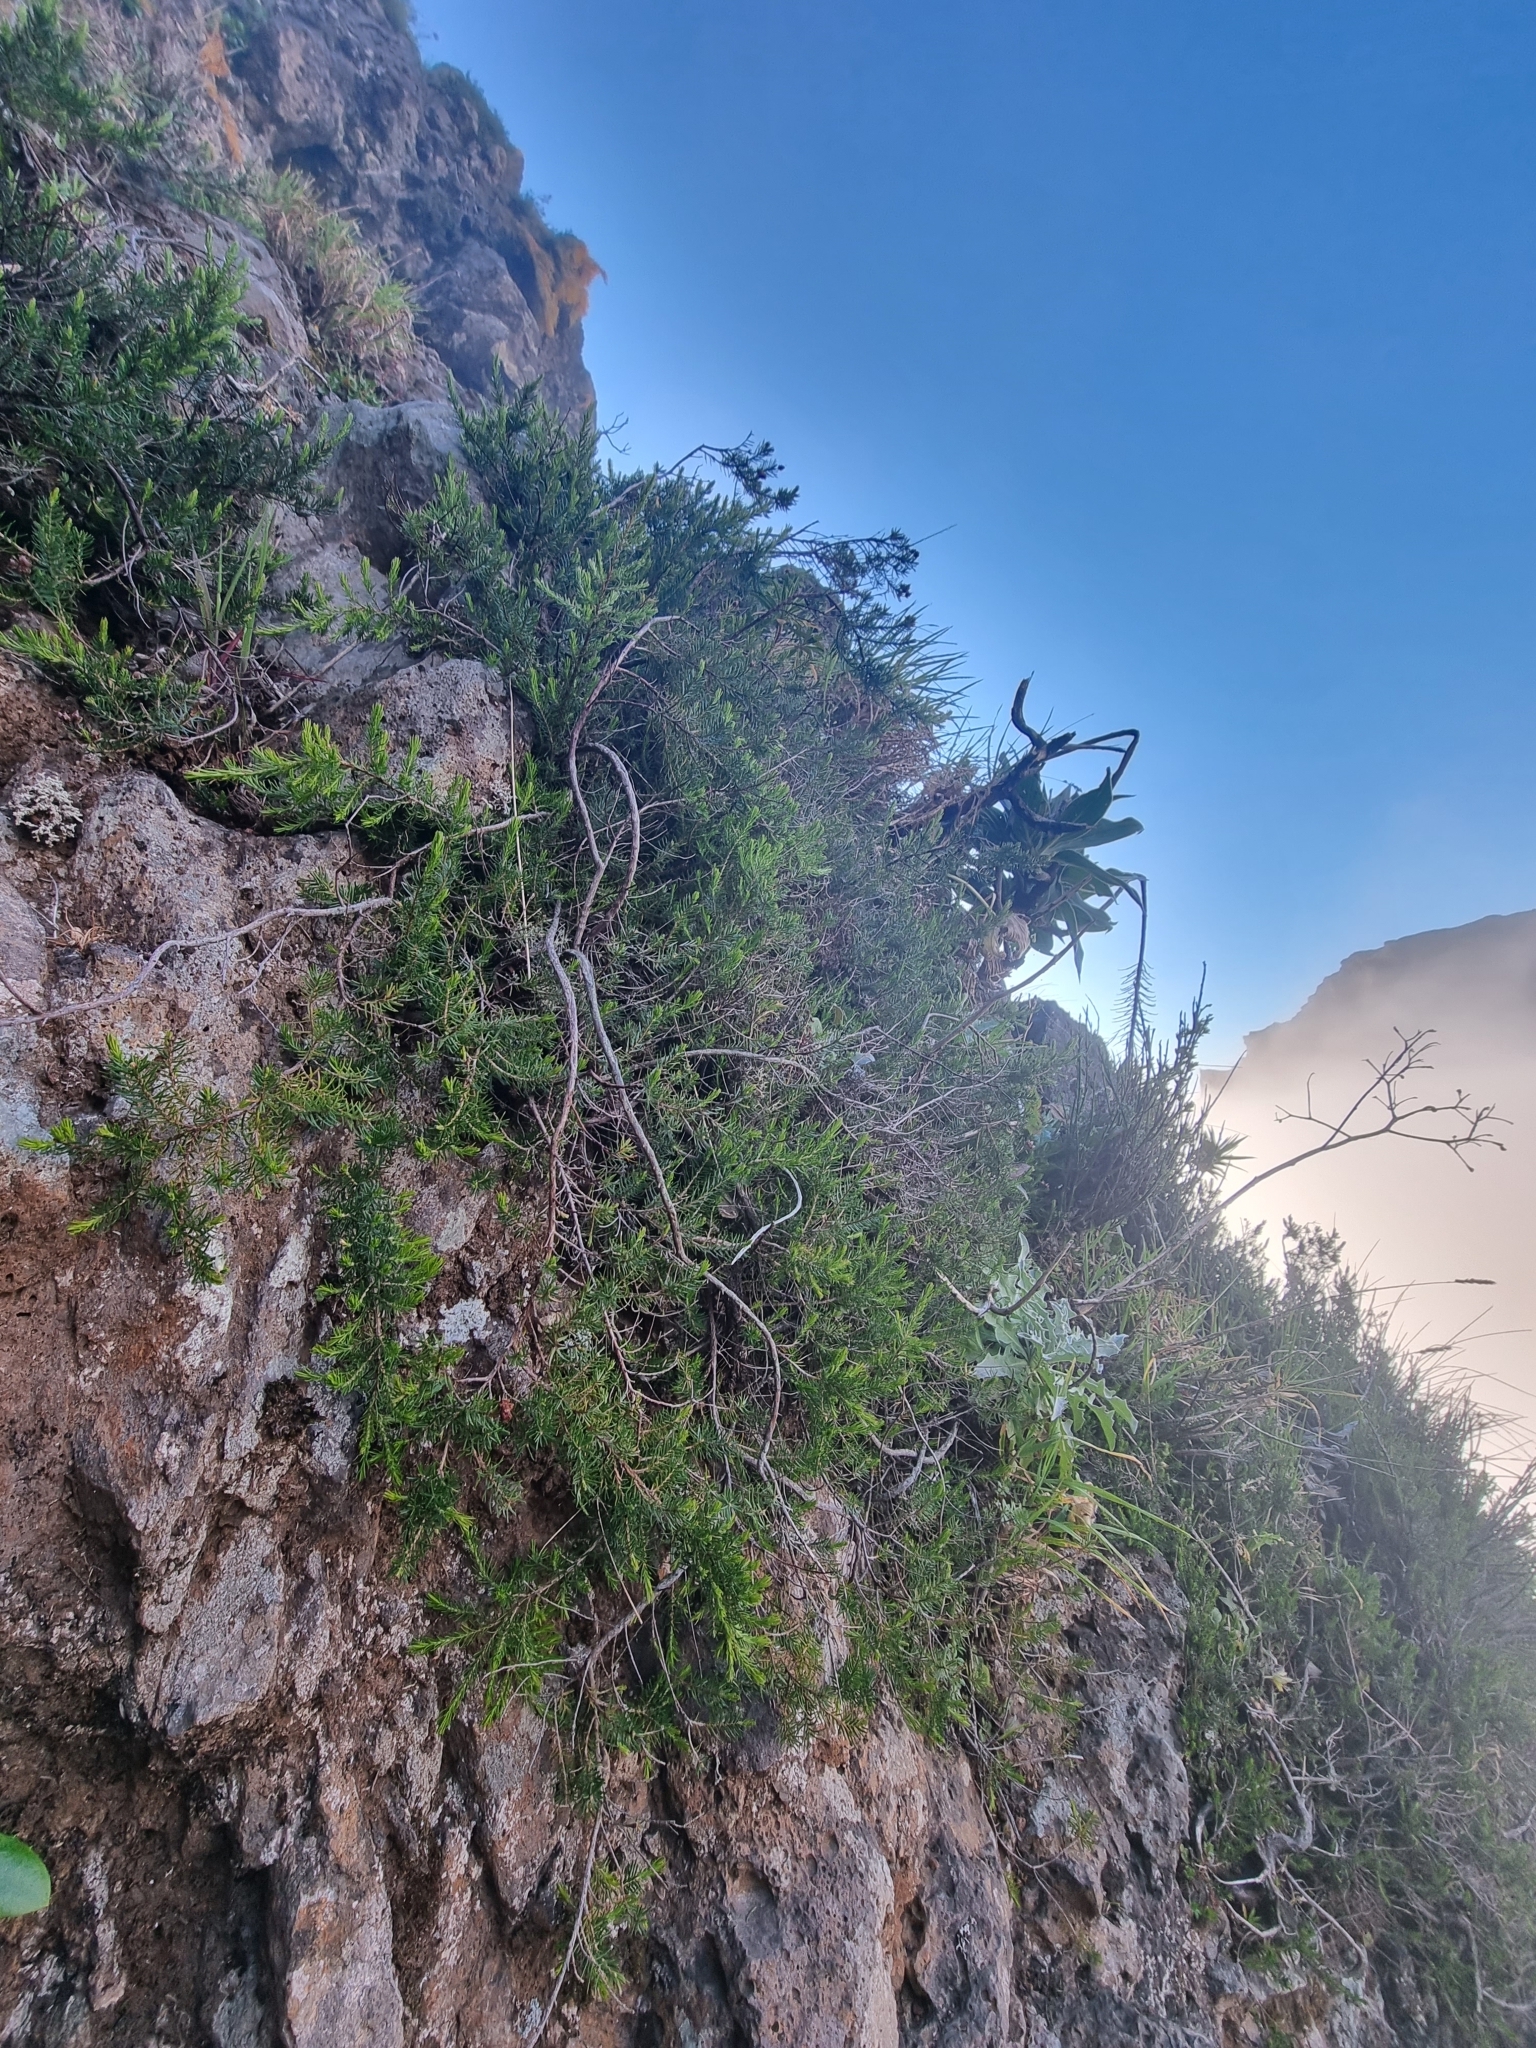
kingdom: Plantae
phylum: Tracheophyta
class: Magnoliopsida
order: Ericales
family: Ericaceae
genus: Erica
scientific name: Erica maderensis
